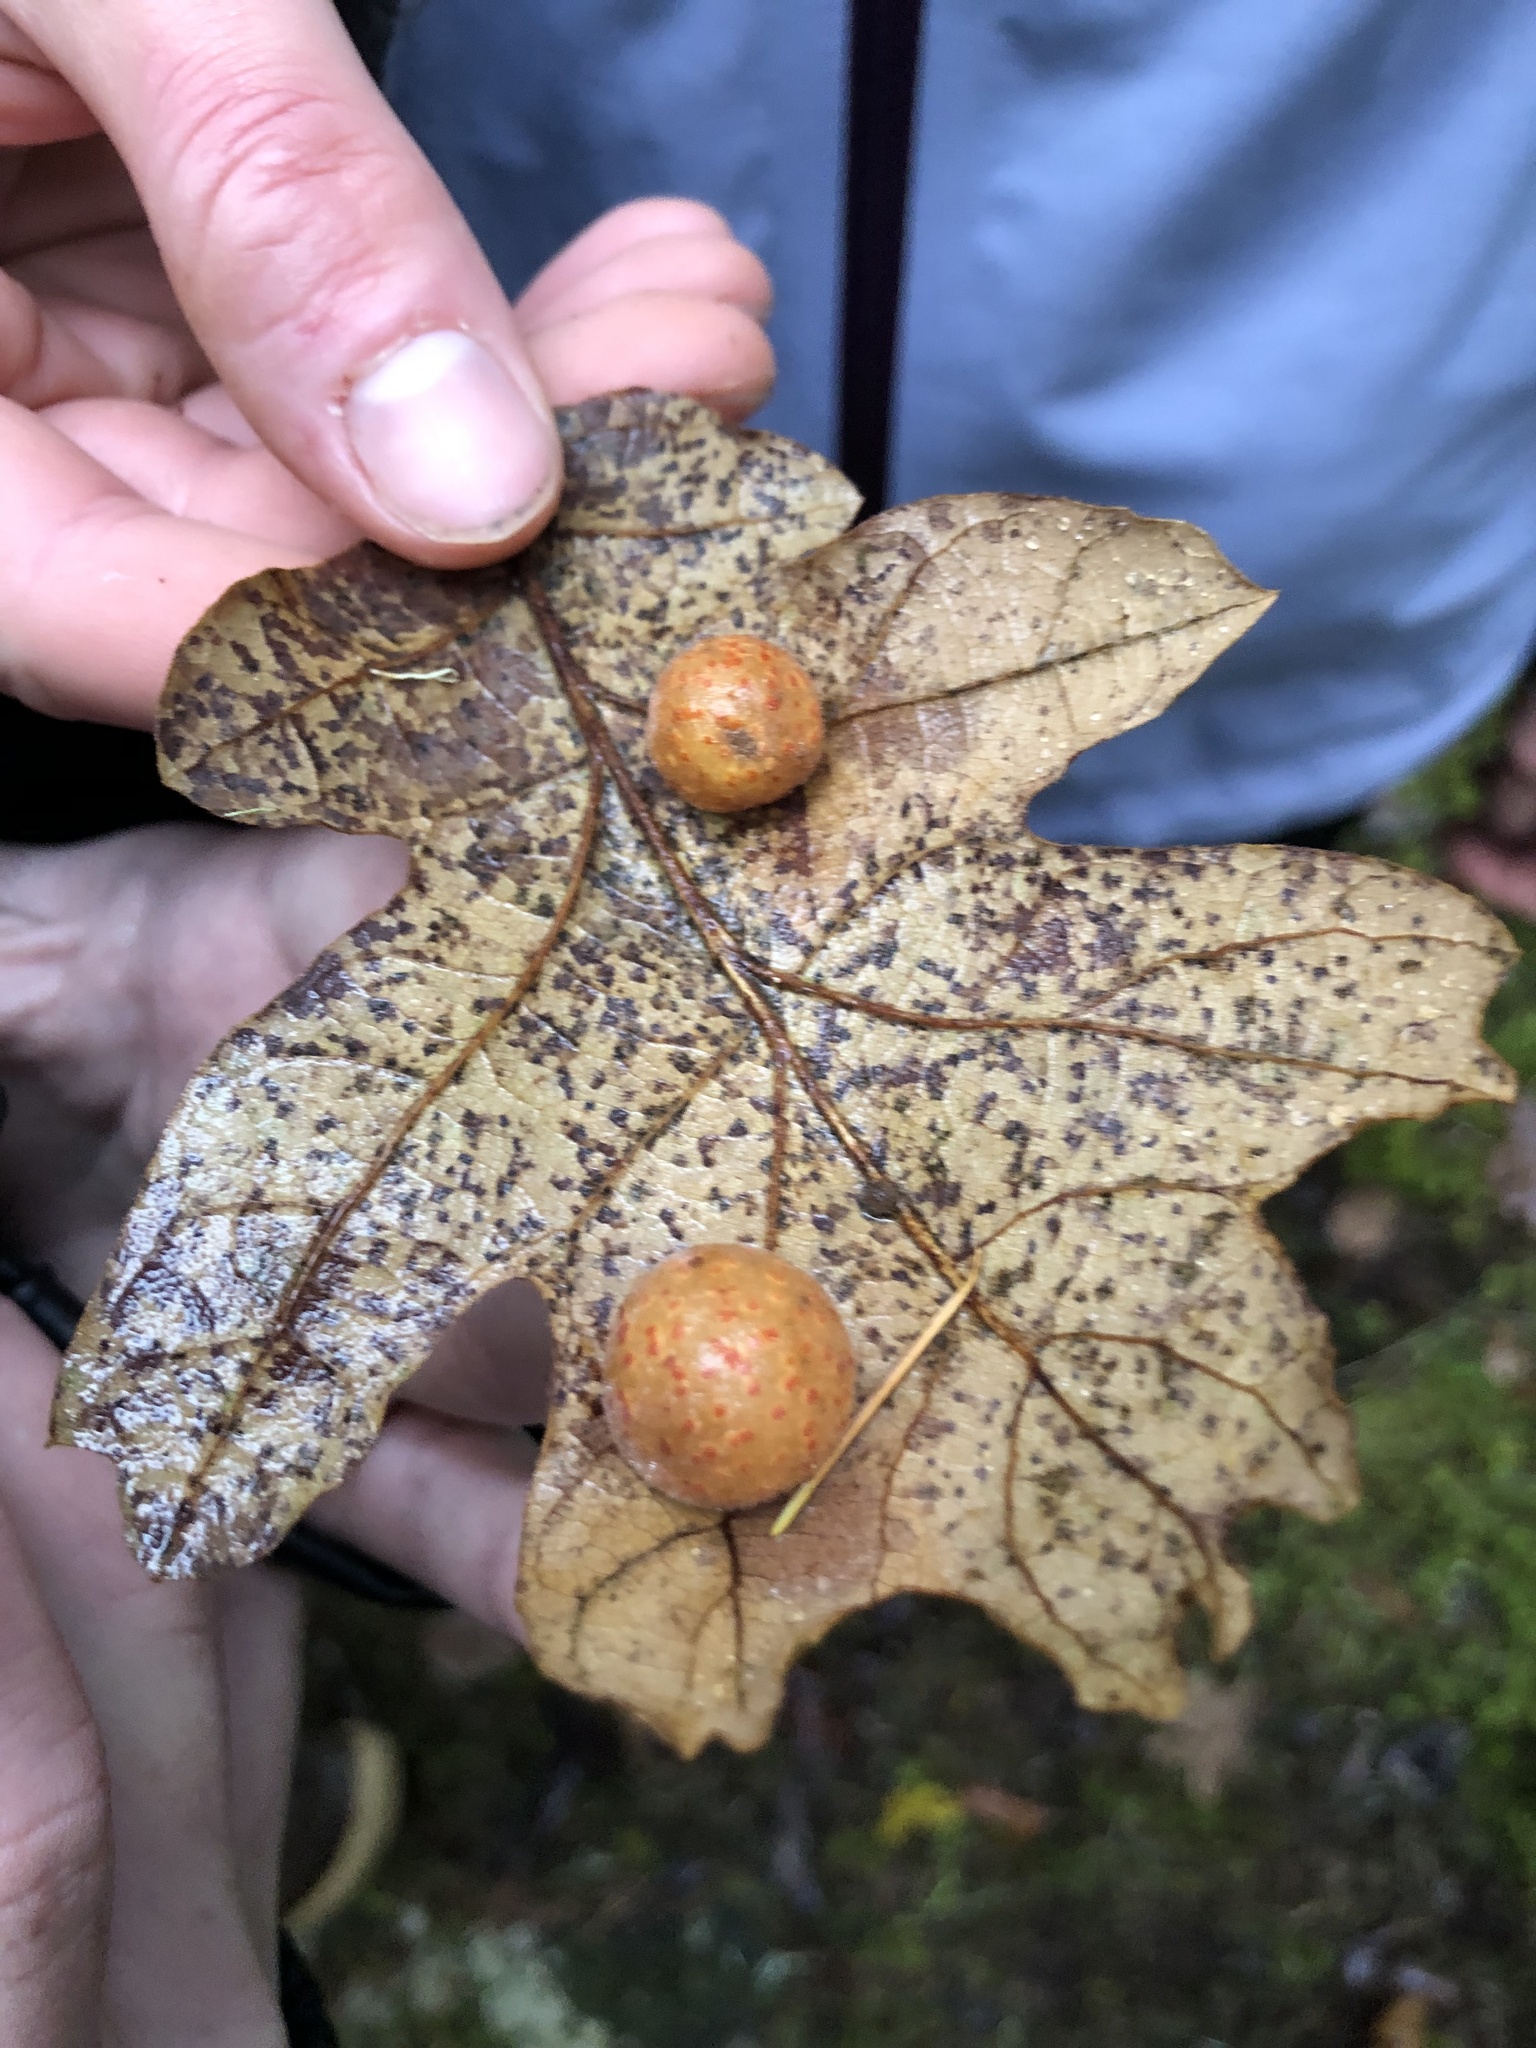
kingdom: Animalia
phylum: Arthropoda
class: Insecta
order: Hymenoptera
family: Cynipidae
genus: Cynips
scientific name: Cynips
